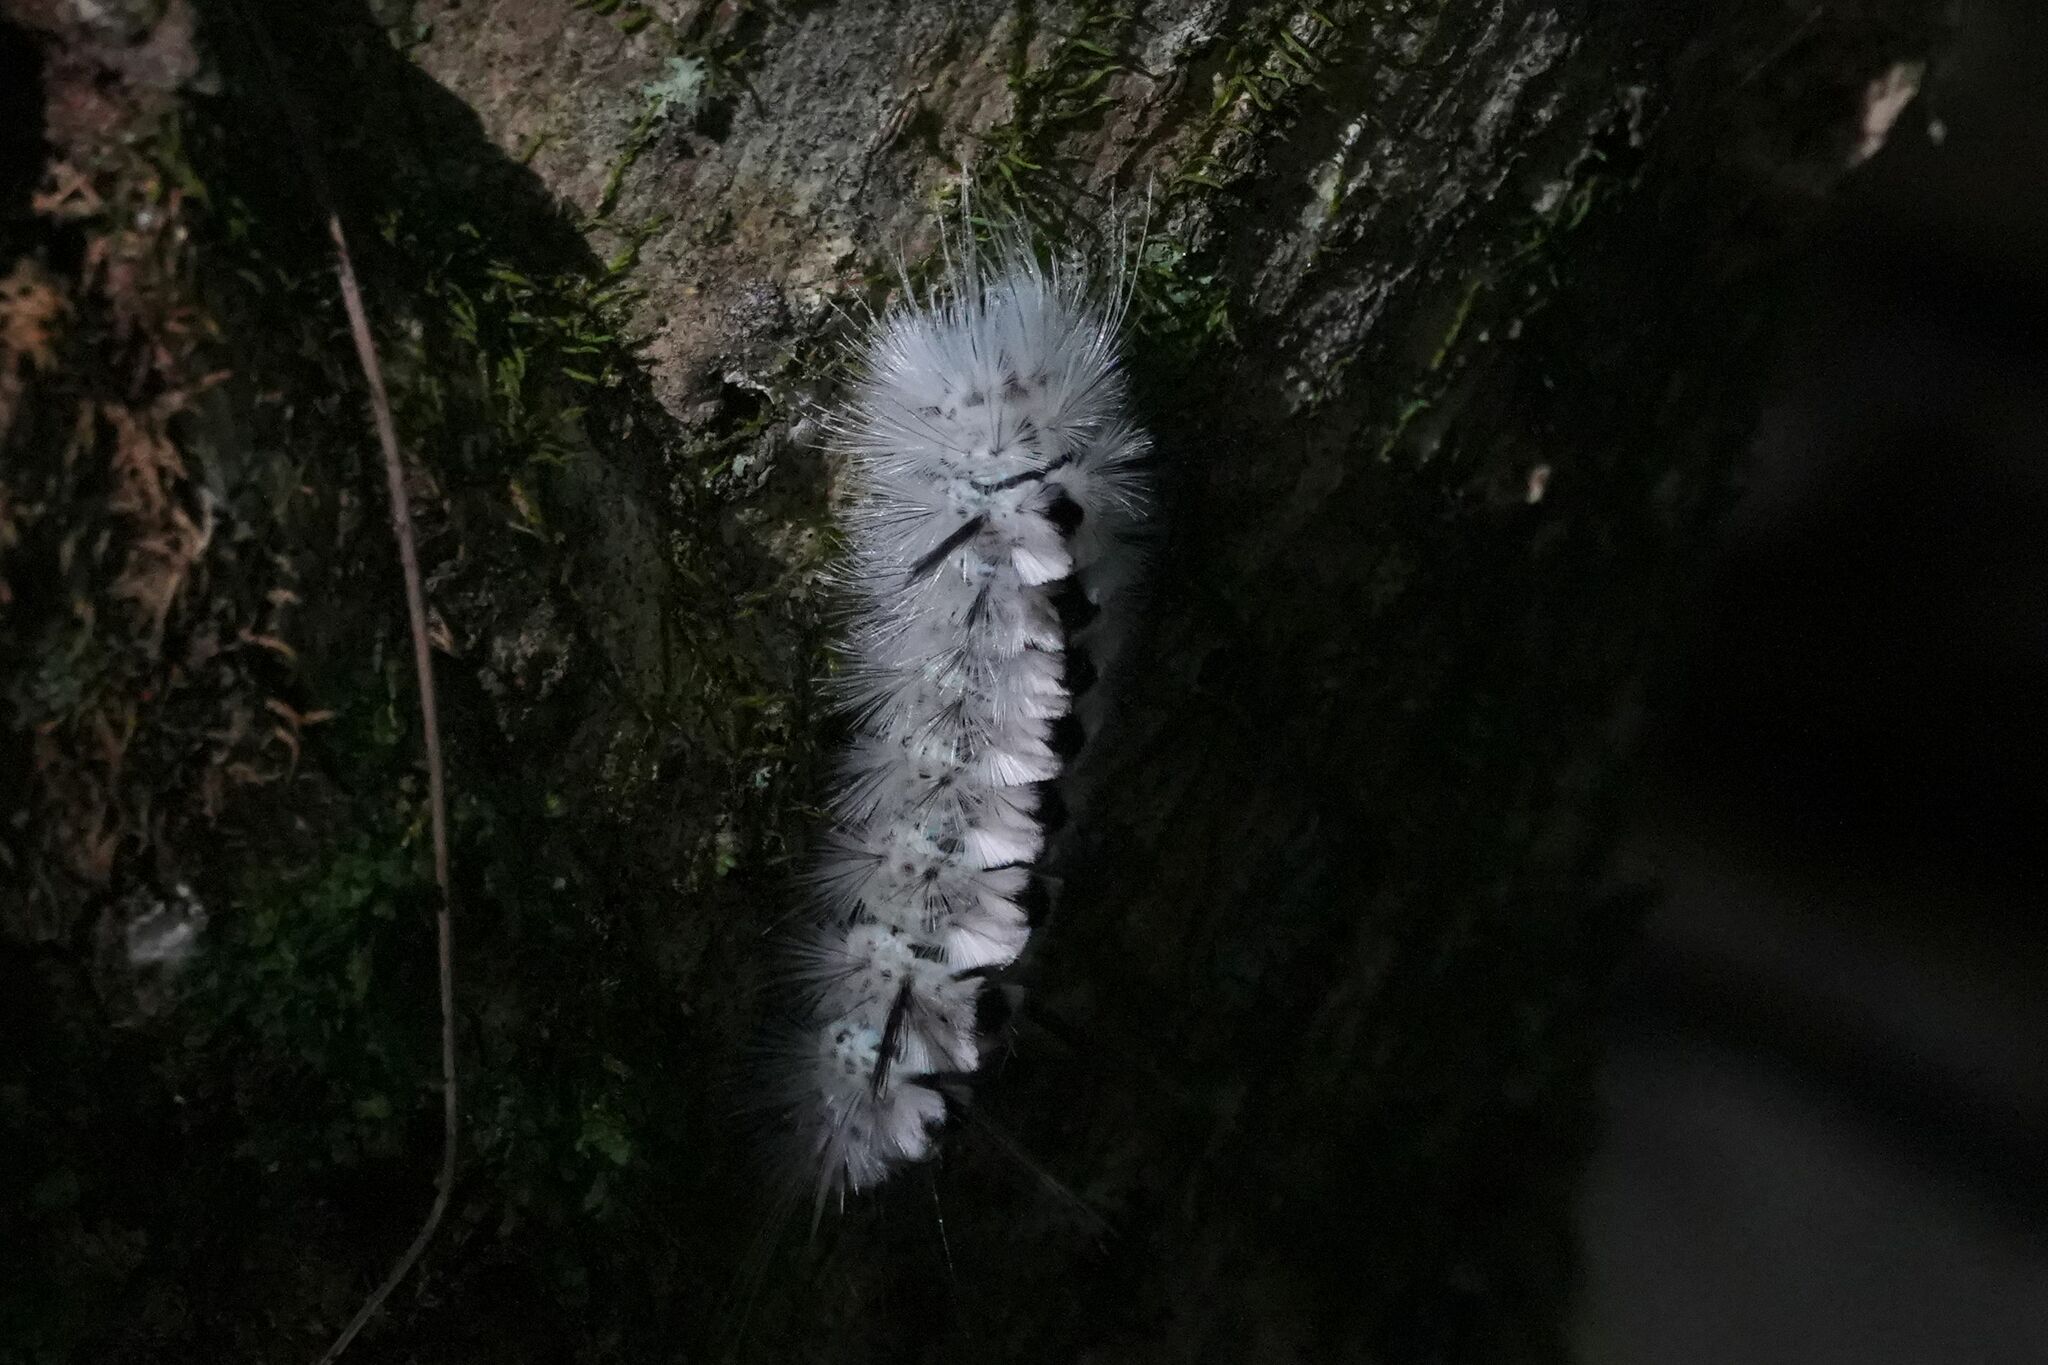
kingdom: Animalia
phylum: Arthropoda
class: Insecta
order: Lepidoptera
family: Erebidae
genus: Lophocampa
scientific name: Lophocampa caryae
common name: Hickory tussock moth
